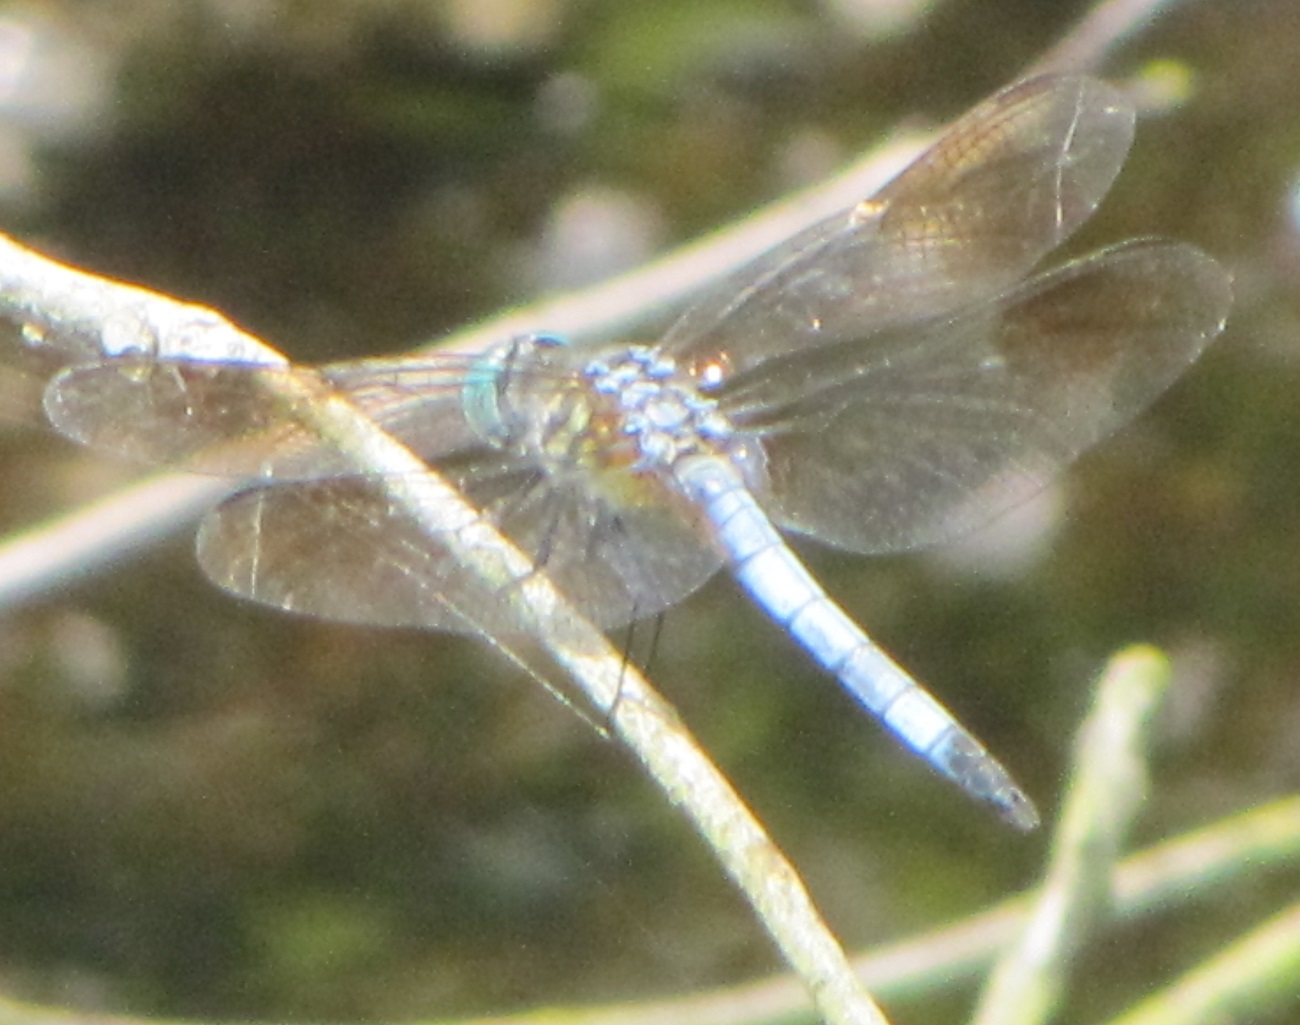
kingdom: Animalia
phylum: Arthropoda
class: Insecta
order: Odonata
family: Libellulidae
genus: Pachydiplax
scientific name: Pachydiplax longipennis
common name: Blue dasher
